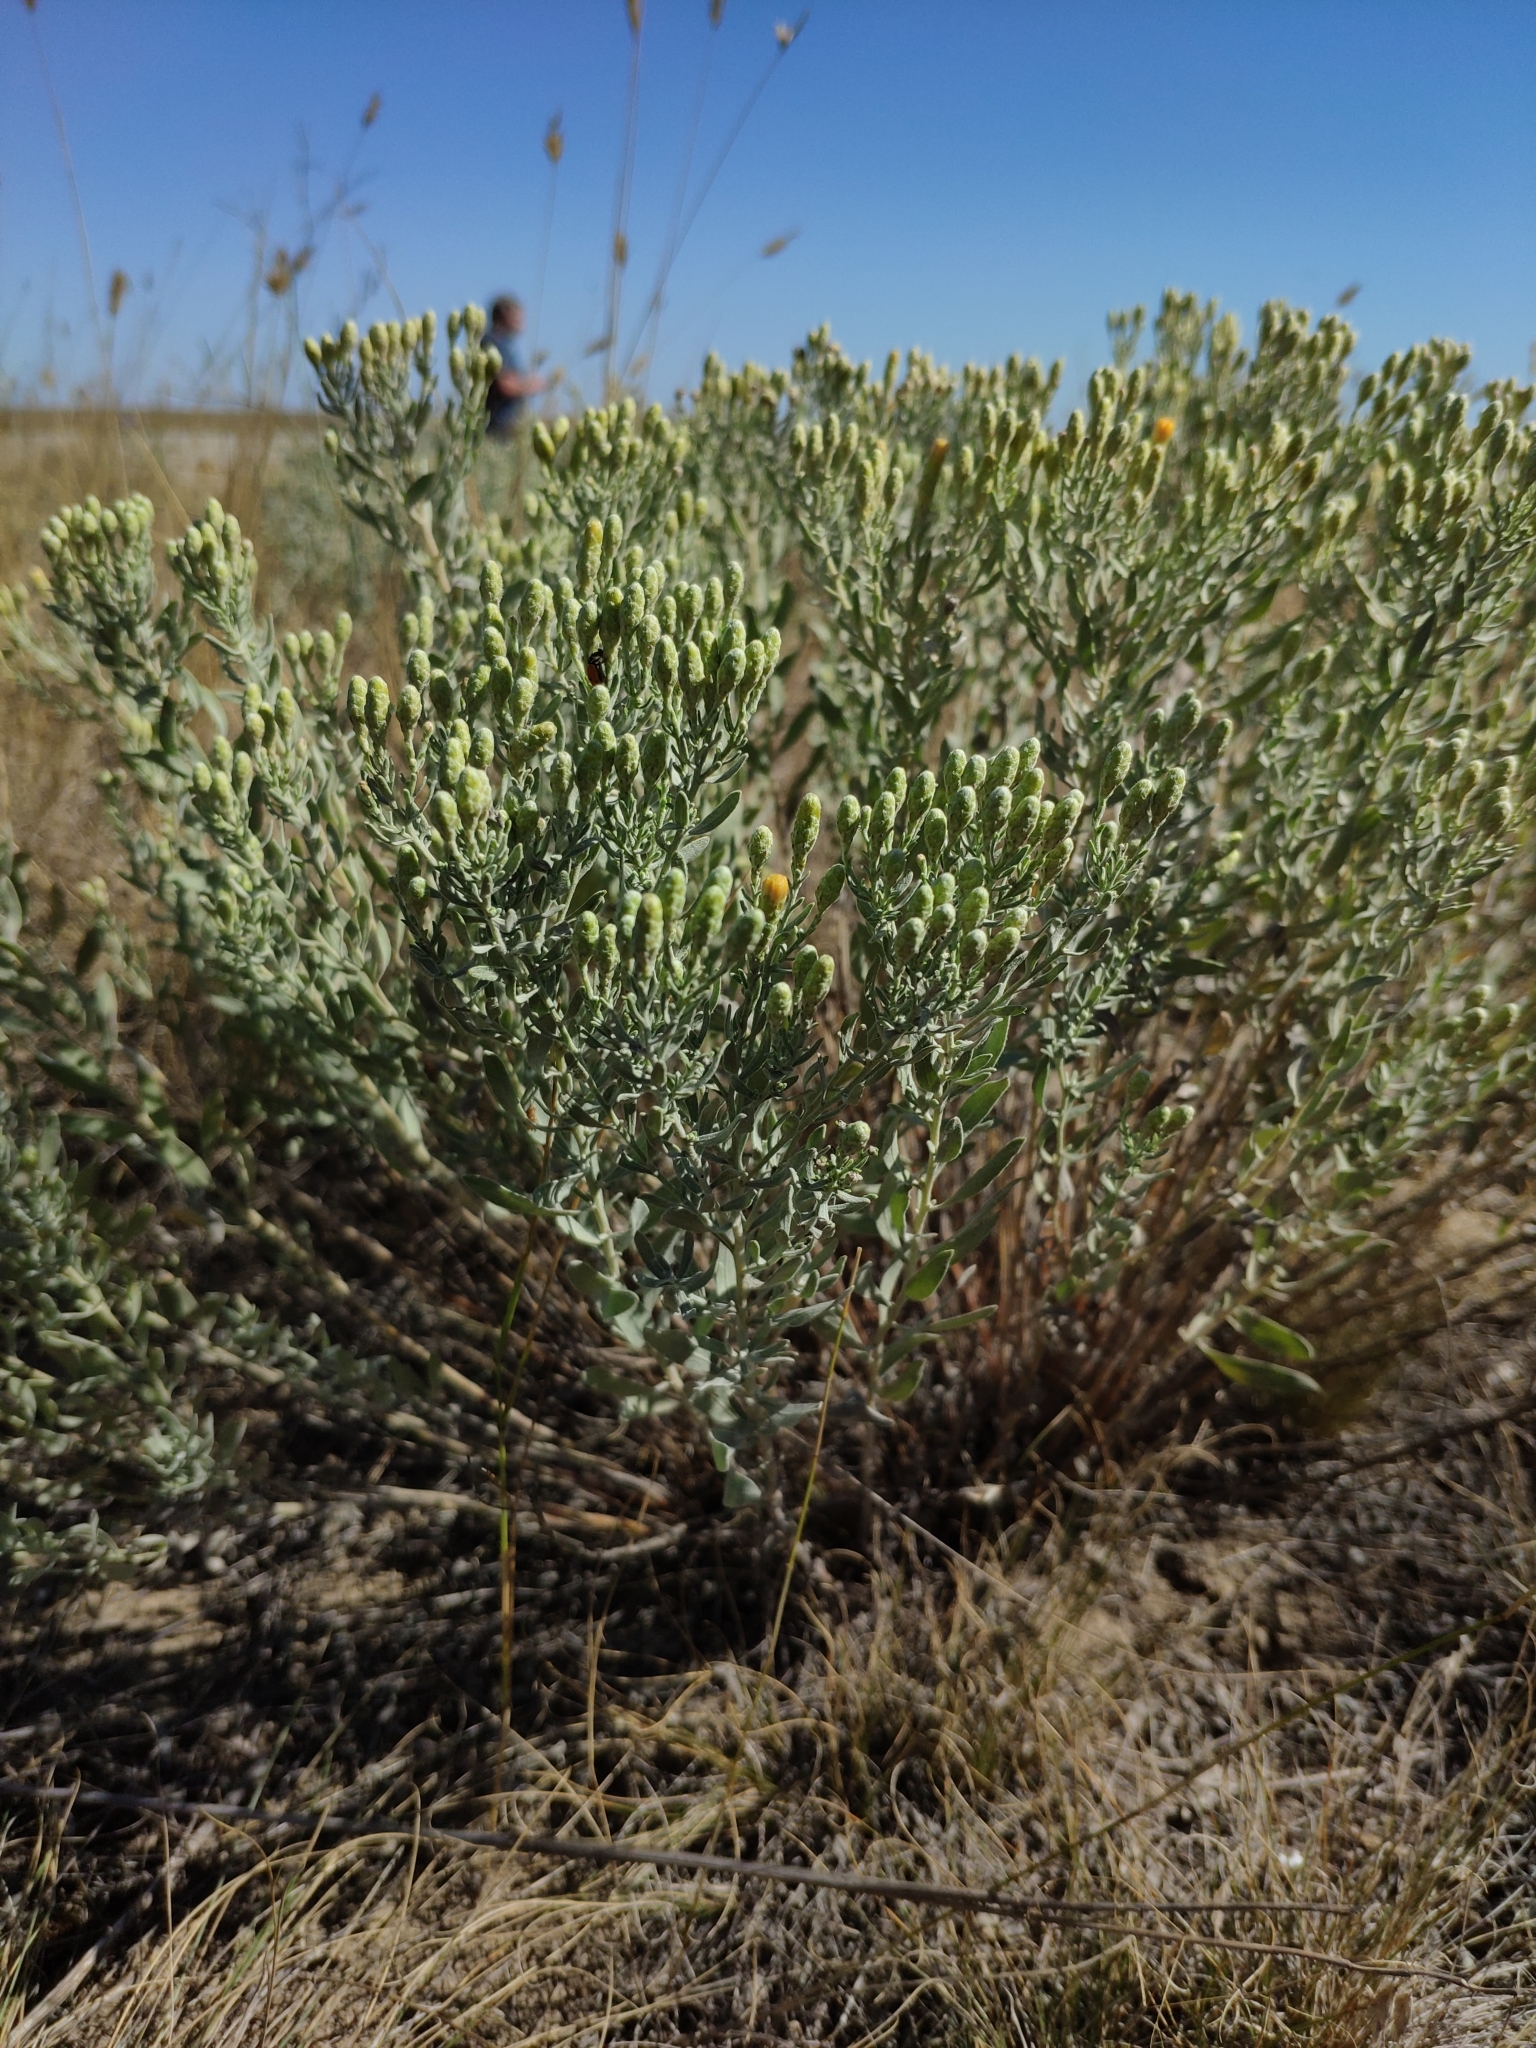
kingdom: Plantae
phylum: Tracheophyta
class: Magnoliopsida
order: Asterales
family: Asteraceae
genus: Galatella
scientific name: Galatella villosa
